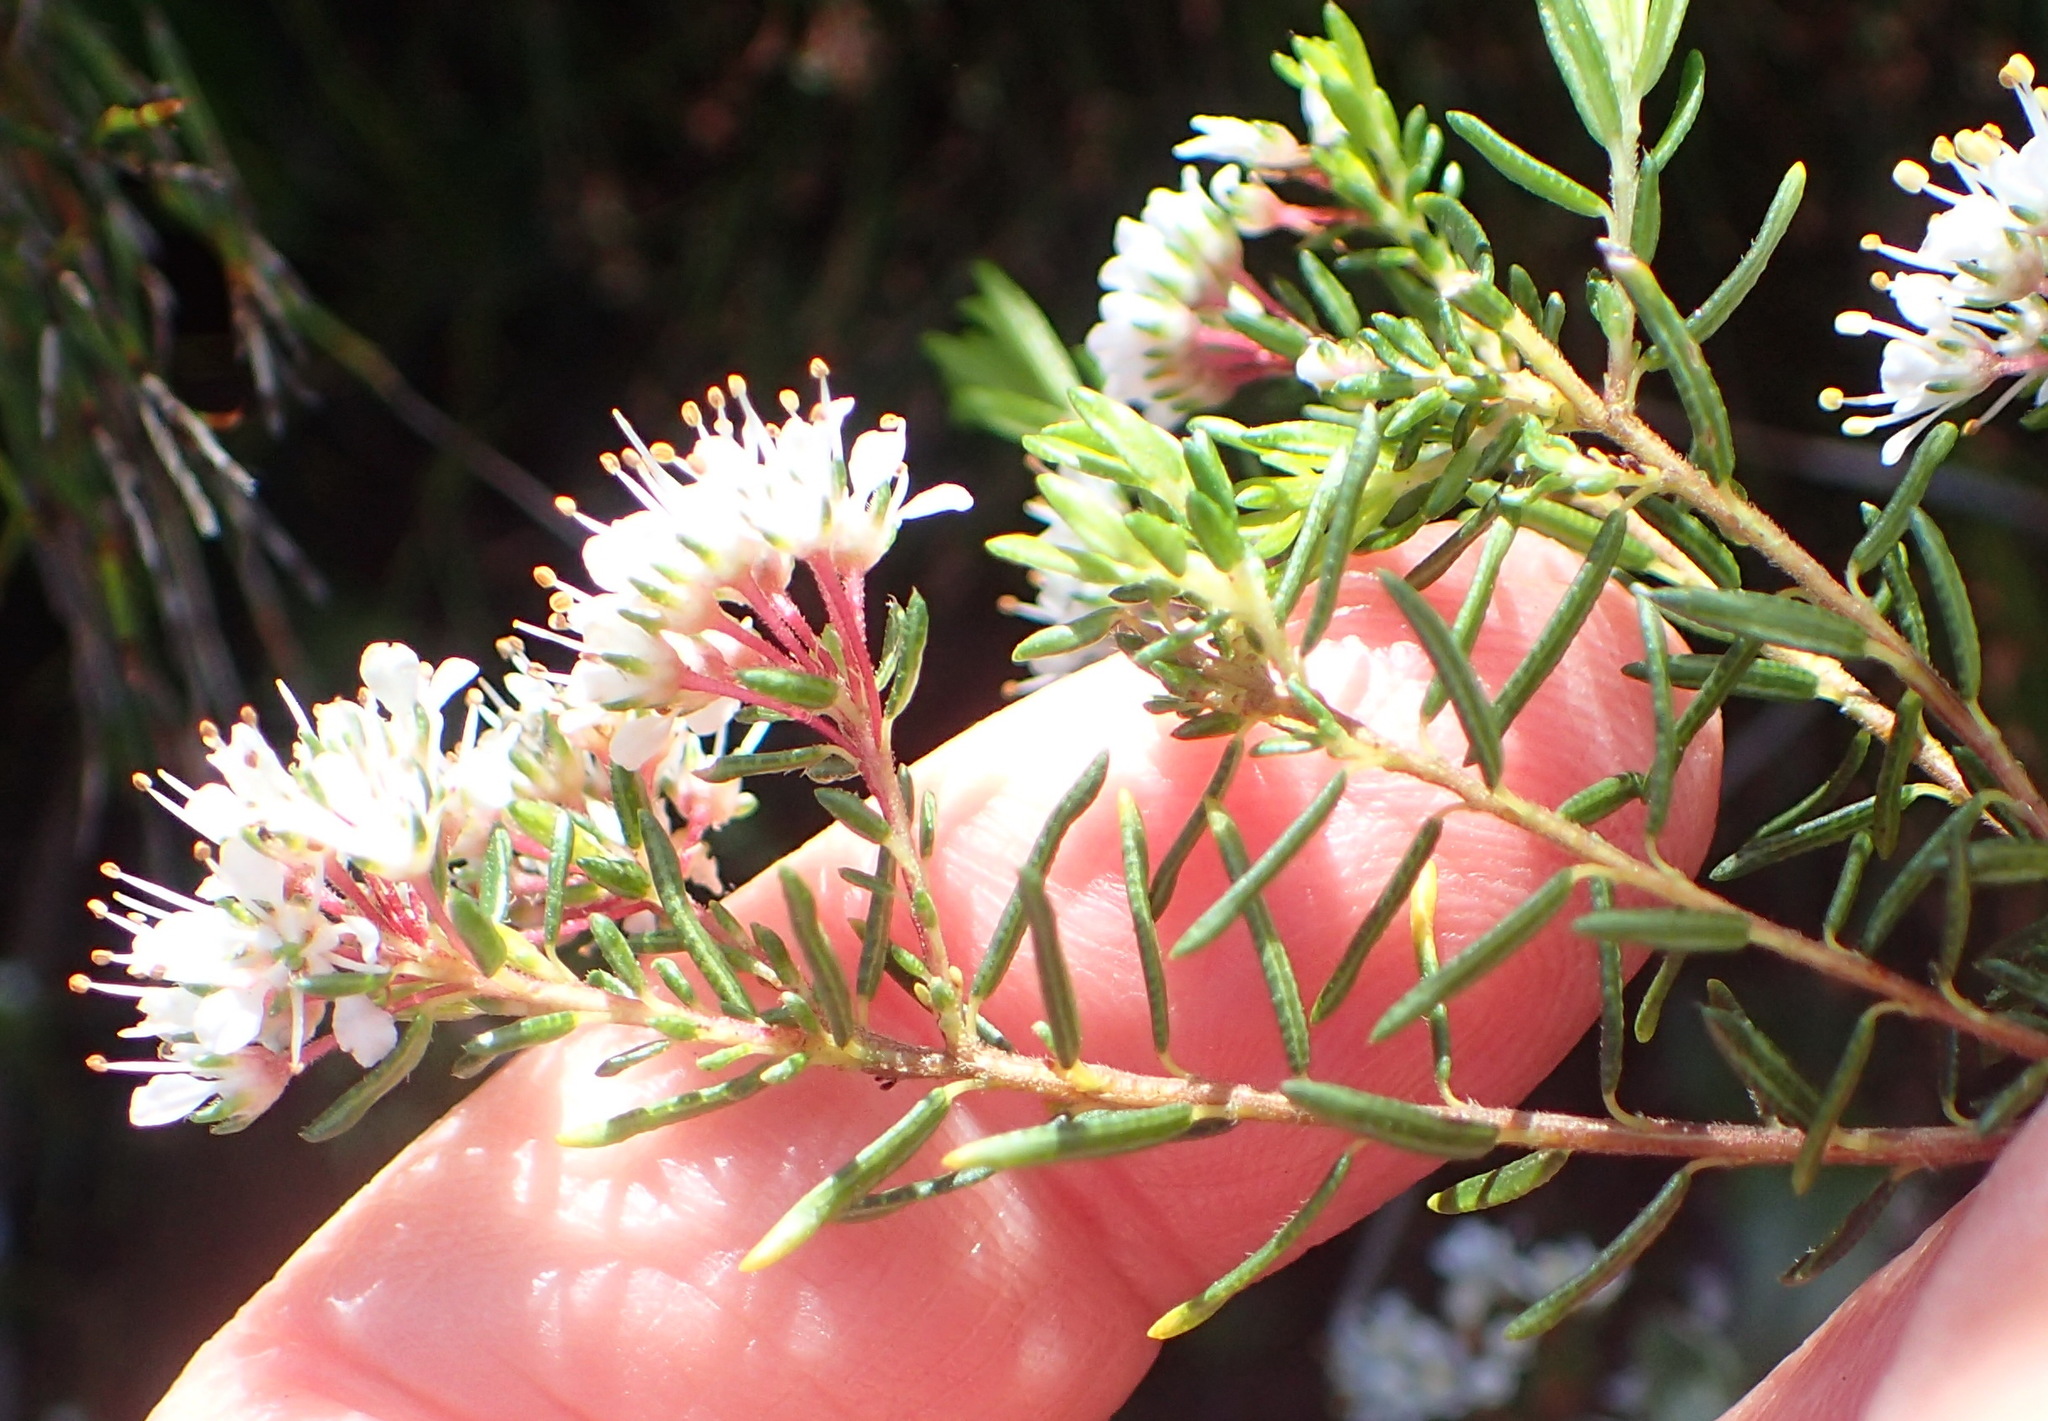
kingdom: Plantae
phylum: Tracheophyta
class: Magnoliopsida
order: Sapindales
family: Rutaceae
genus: Agathosma
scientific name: Agathosma cerefolia
